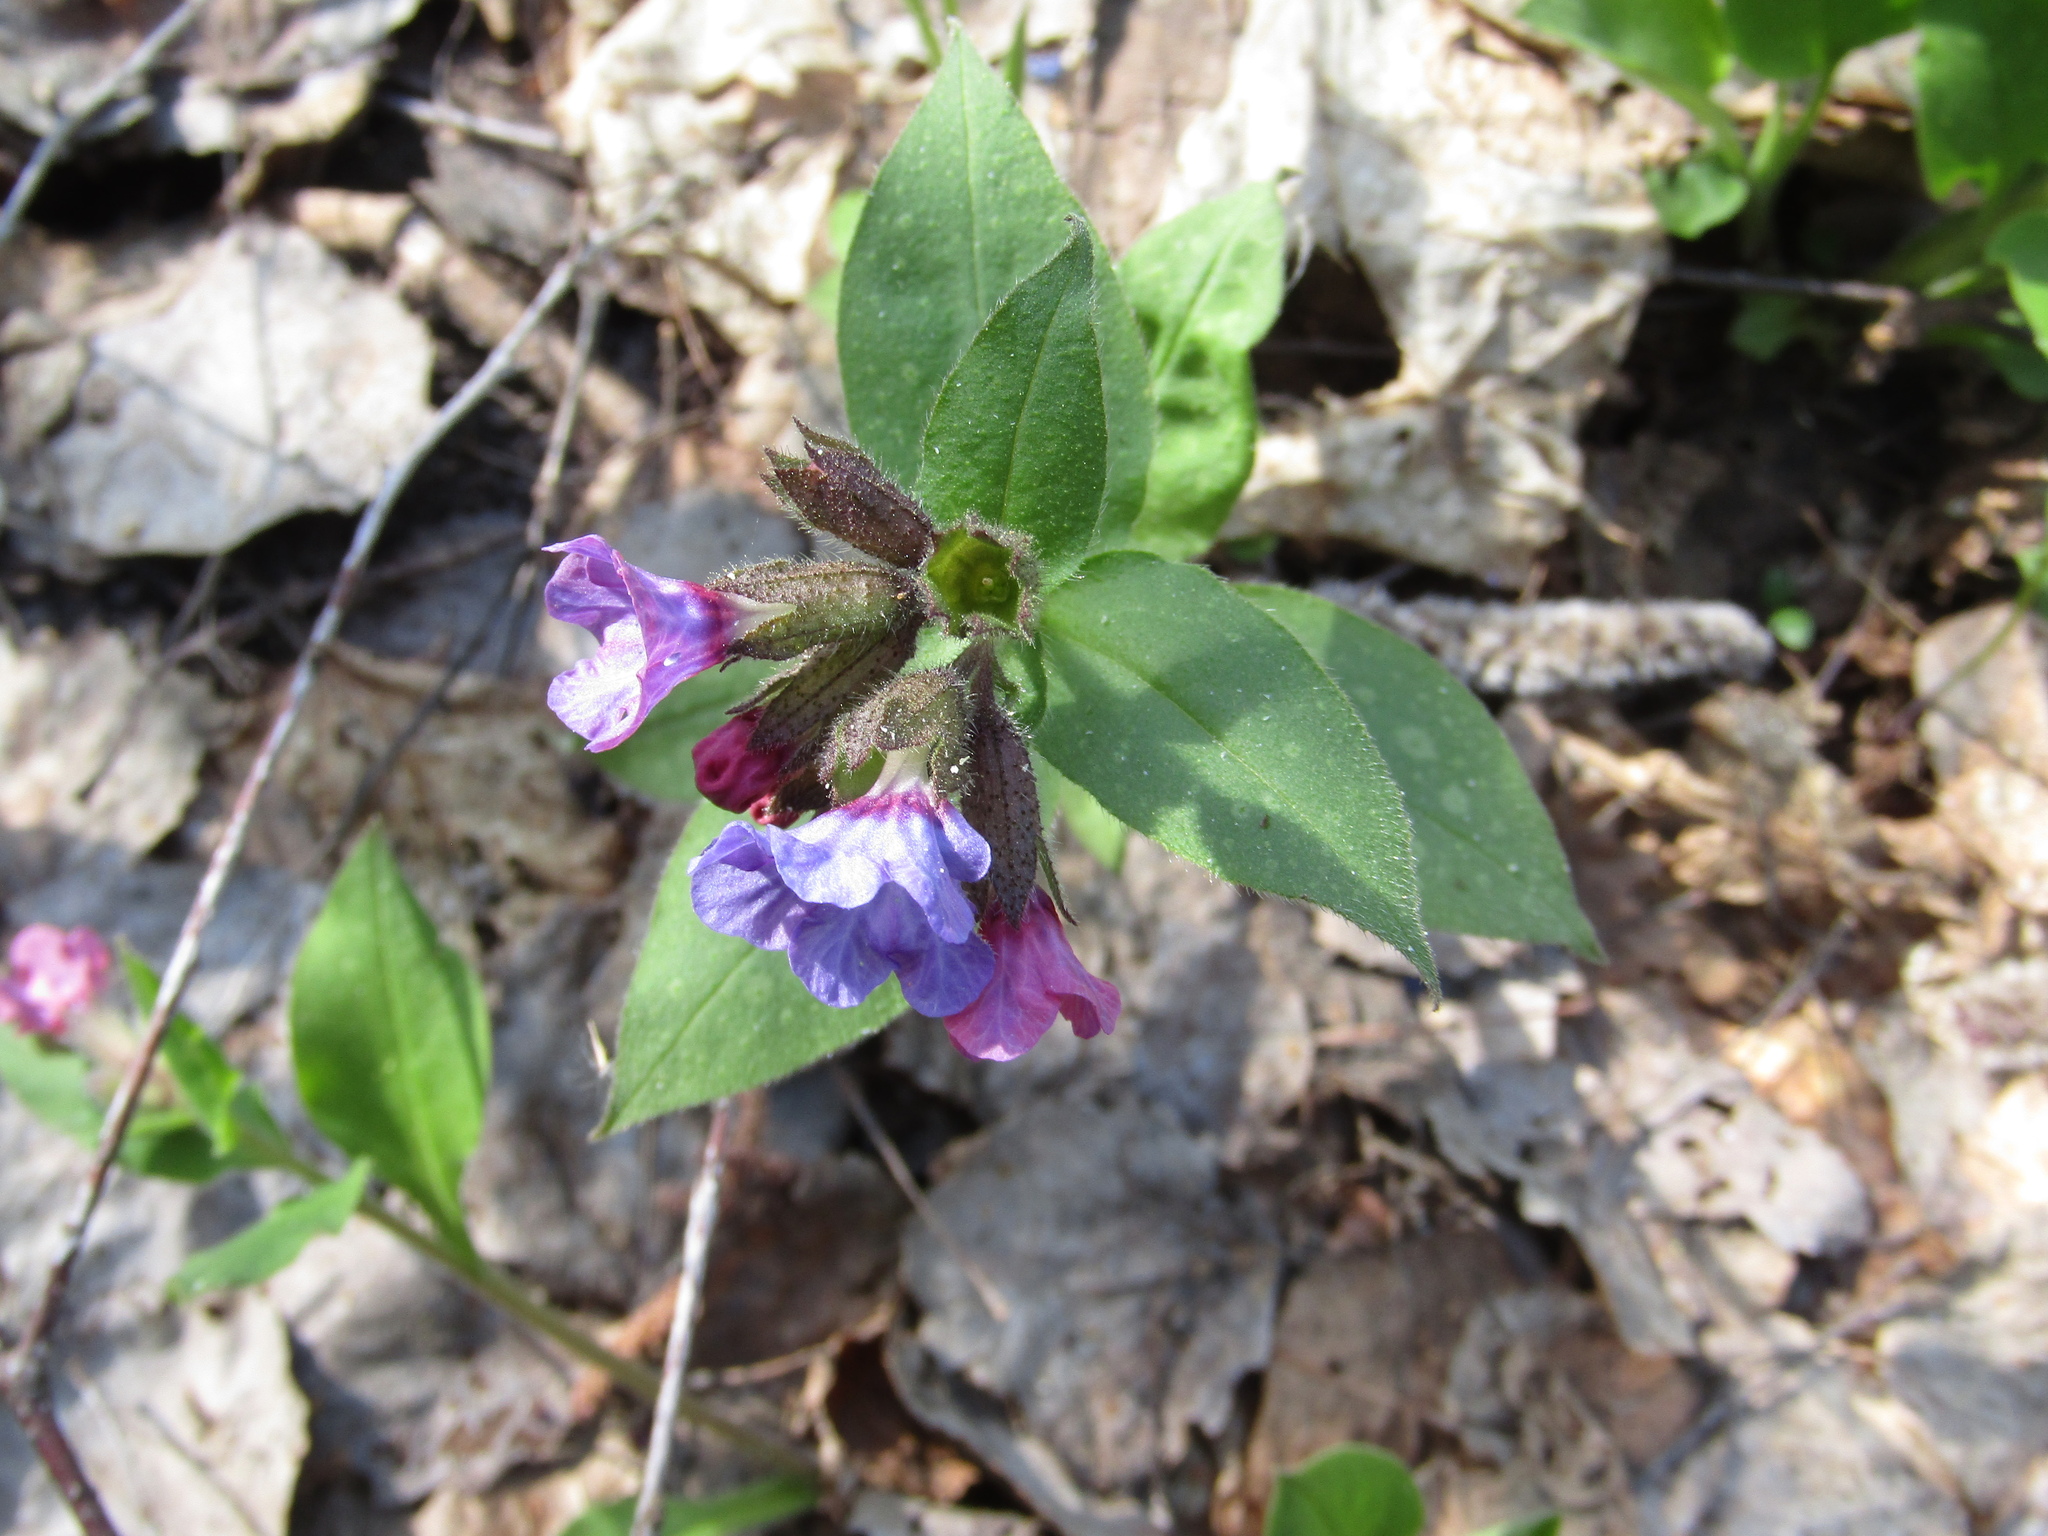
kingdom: Plantae
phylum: Tracheophyta
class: Magnoliopsida
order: Boraginales
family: Boraginaceae
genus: Pulmonaria
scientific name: Pulmonaria obscura
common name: Suffolk lungwort
